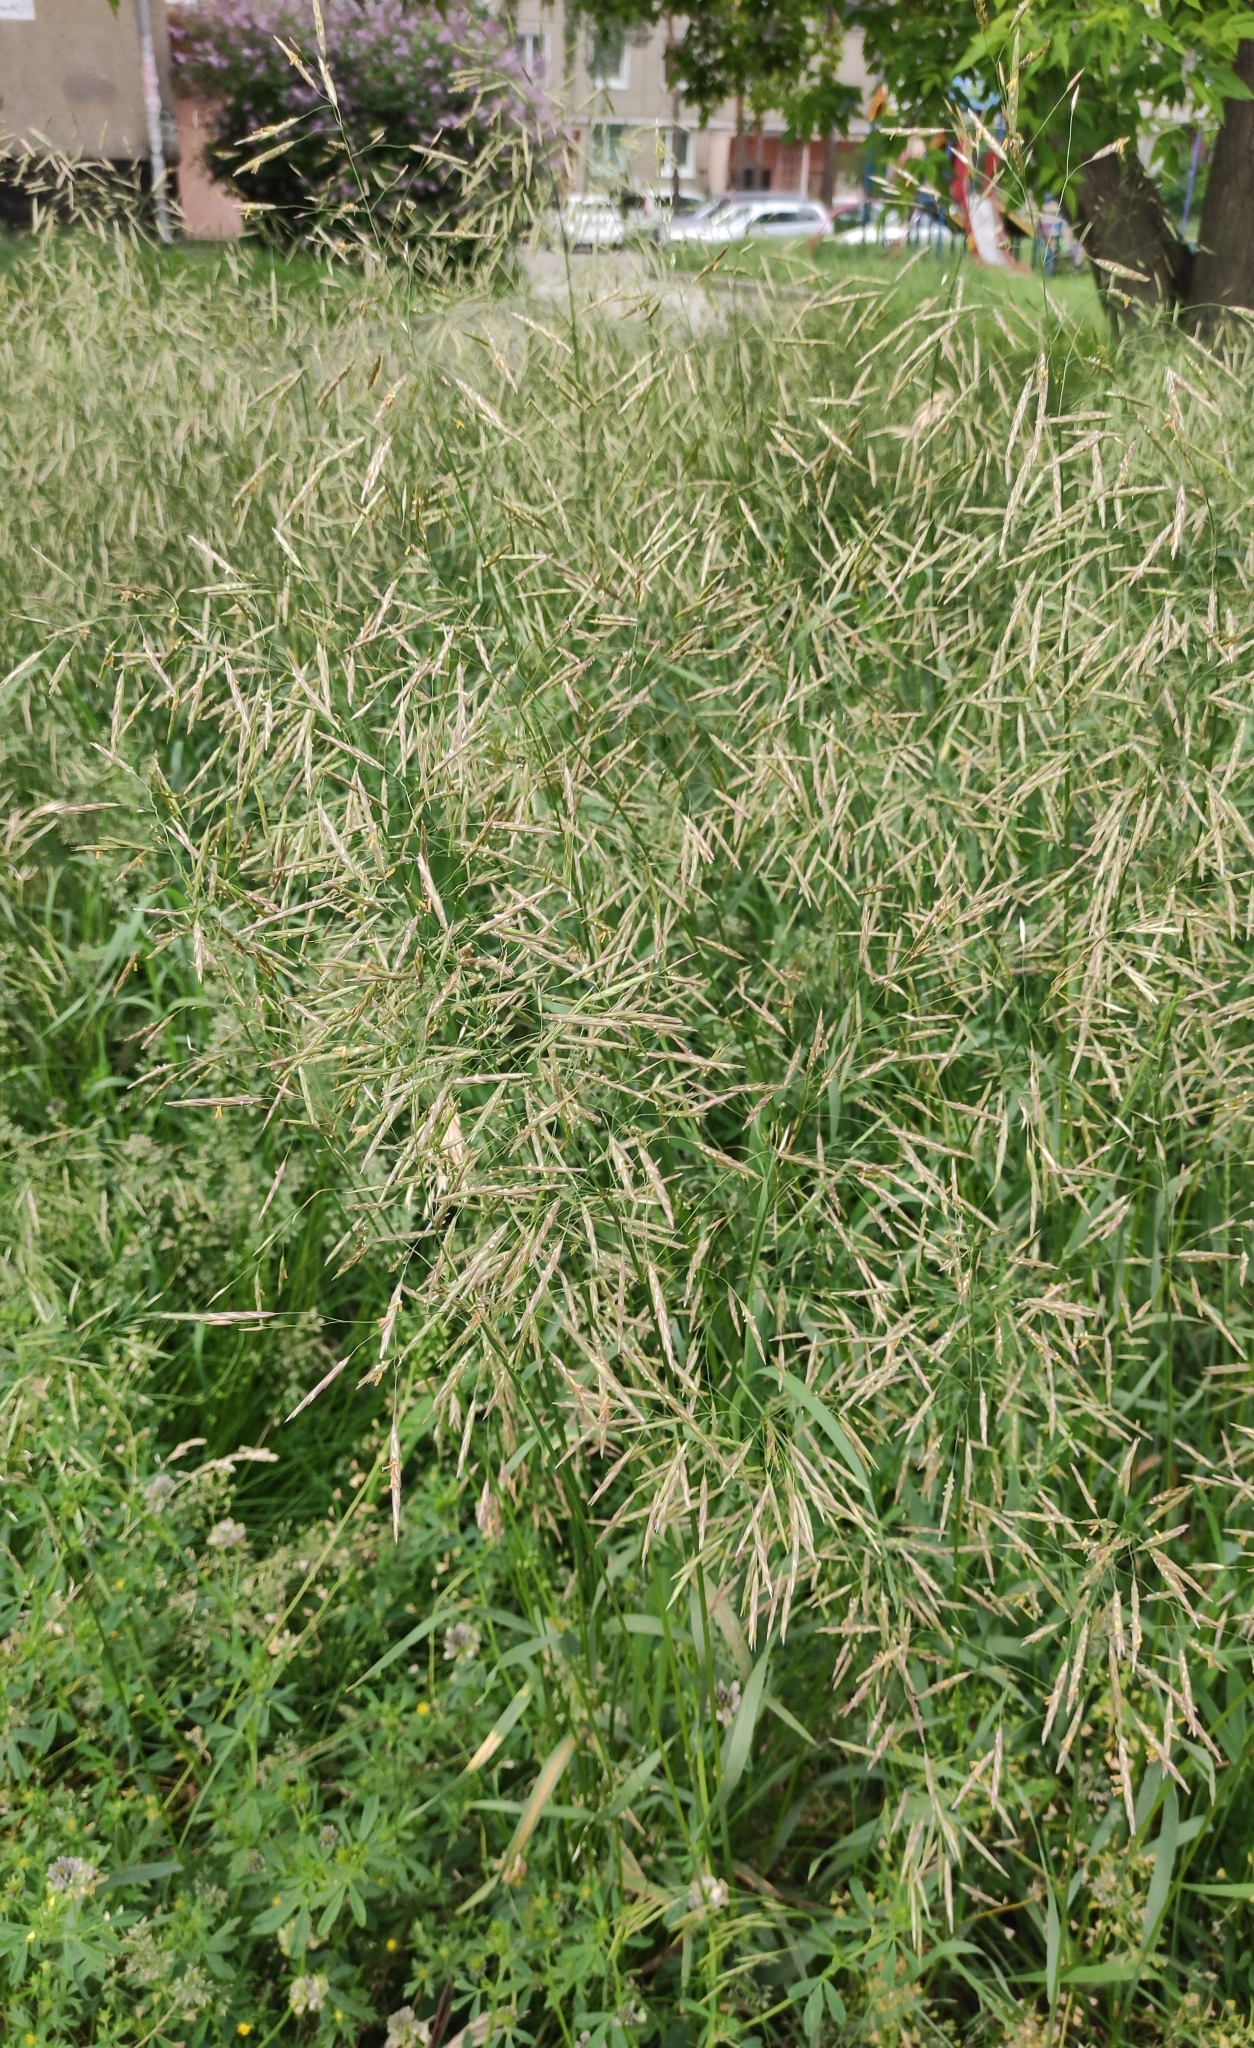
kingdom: Plantae
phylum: Tracheophyta
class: Liliopsida
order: Poales
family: Poaceae
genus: Bromus
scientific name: Bromus inermis
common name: Smooth brome
